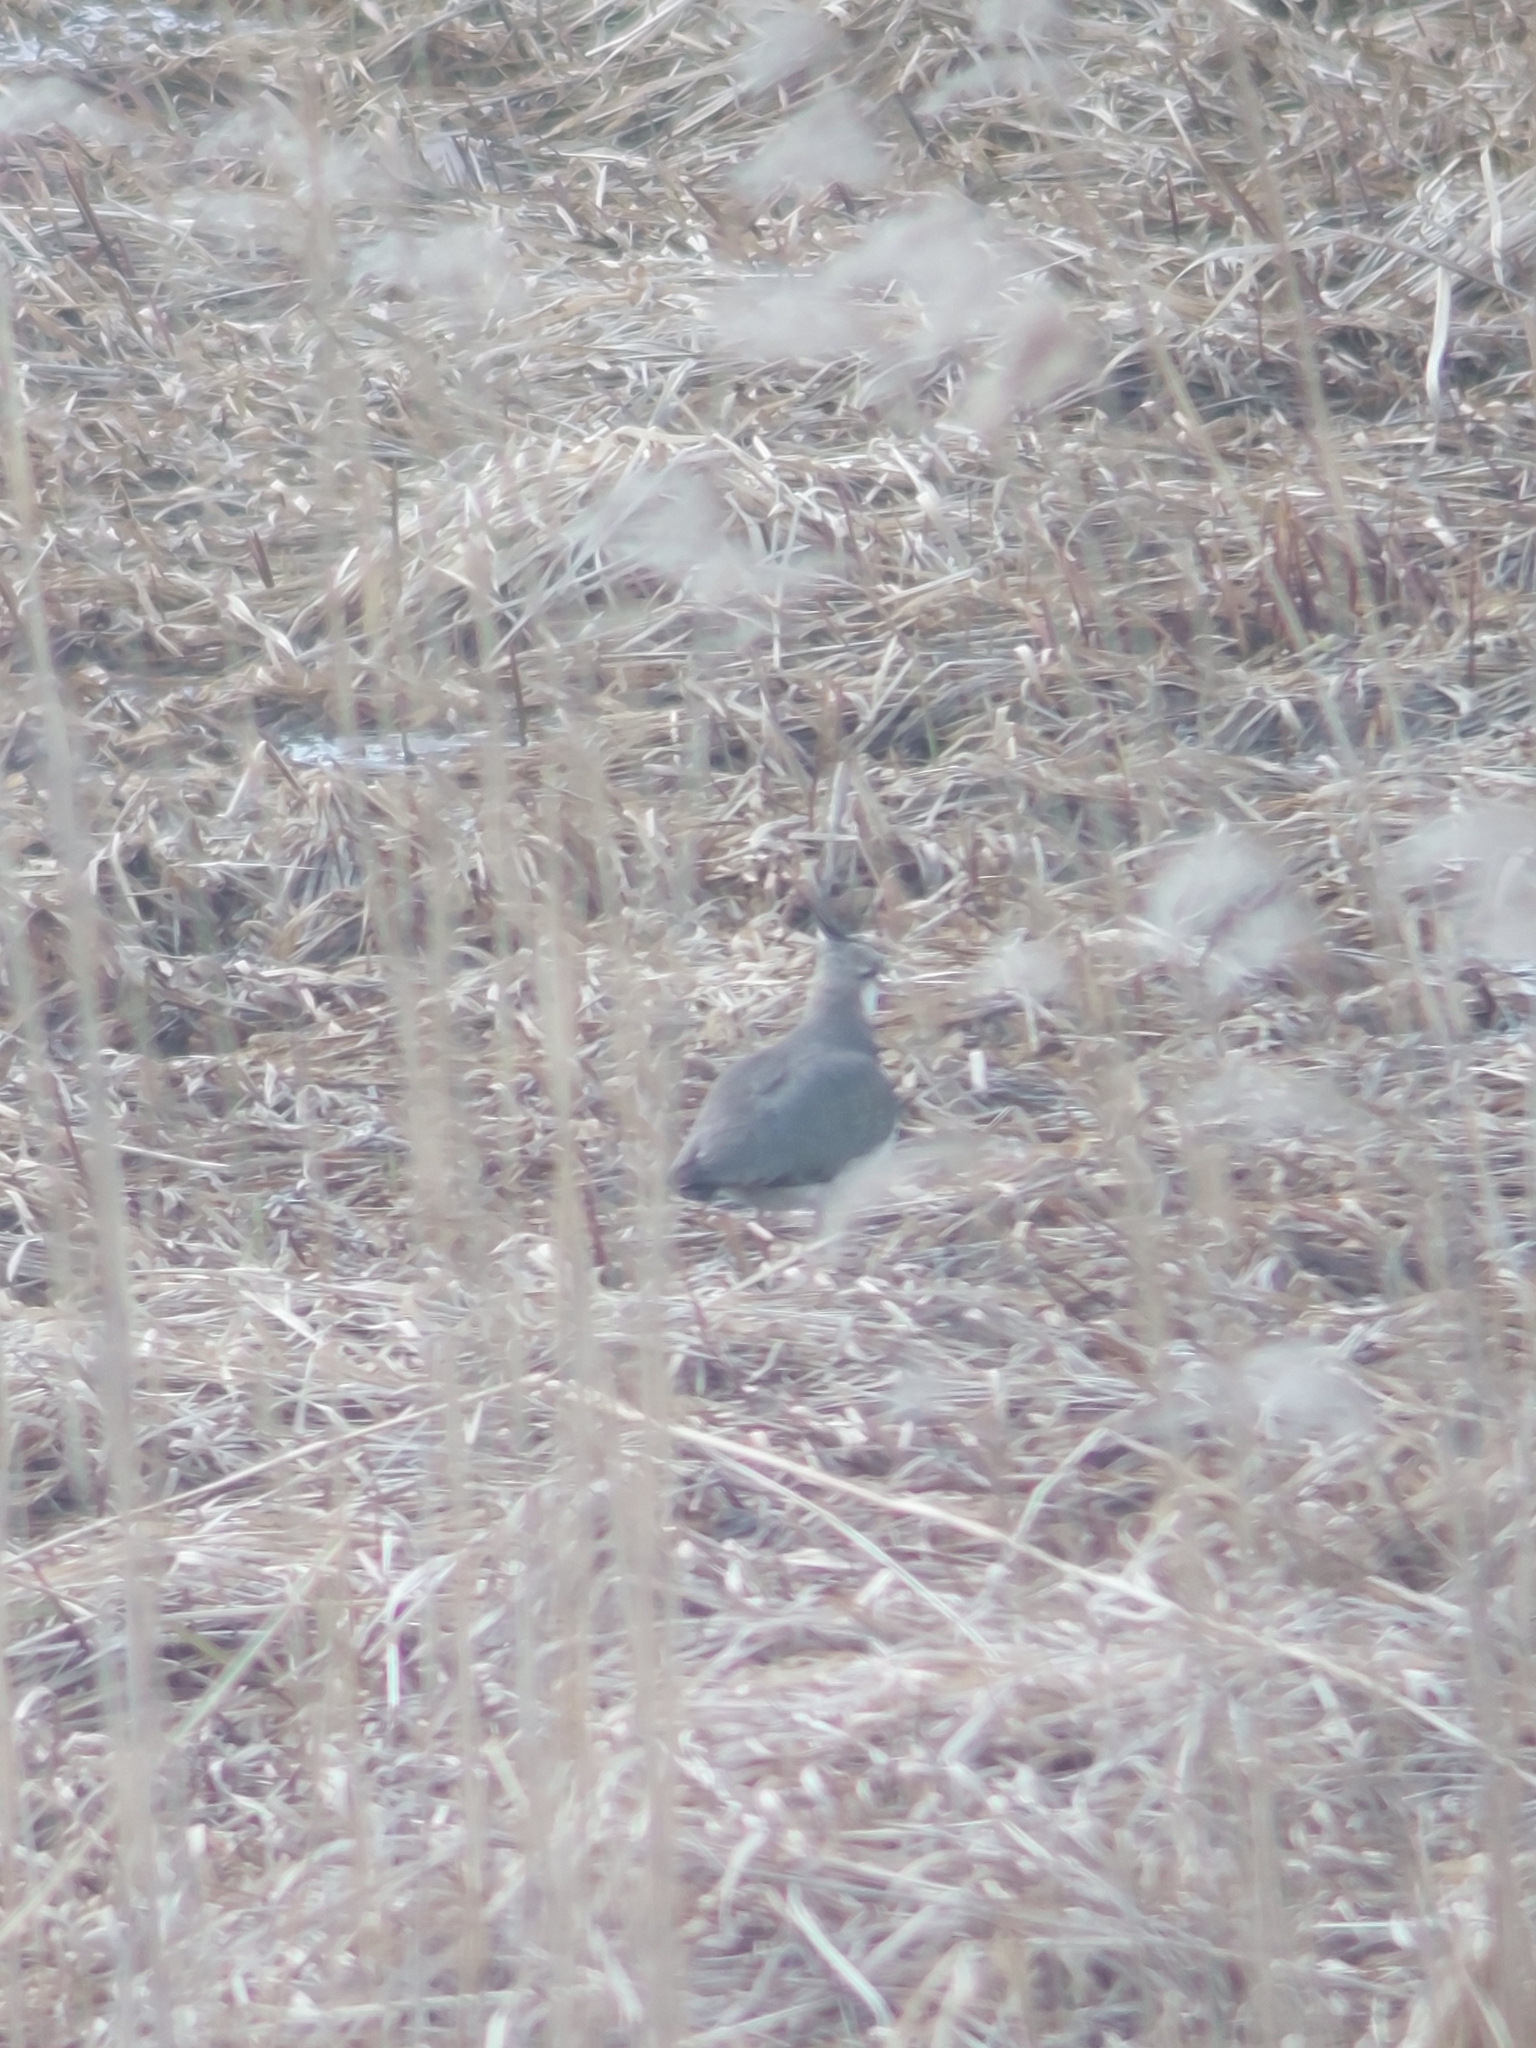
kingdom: Animalia
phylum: Chordata
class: Aves
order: Charadriiformes
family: Charadriidae
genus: Vanellus
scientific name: Vanellus vanellus
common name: Northern lapwing
